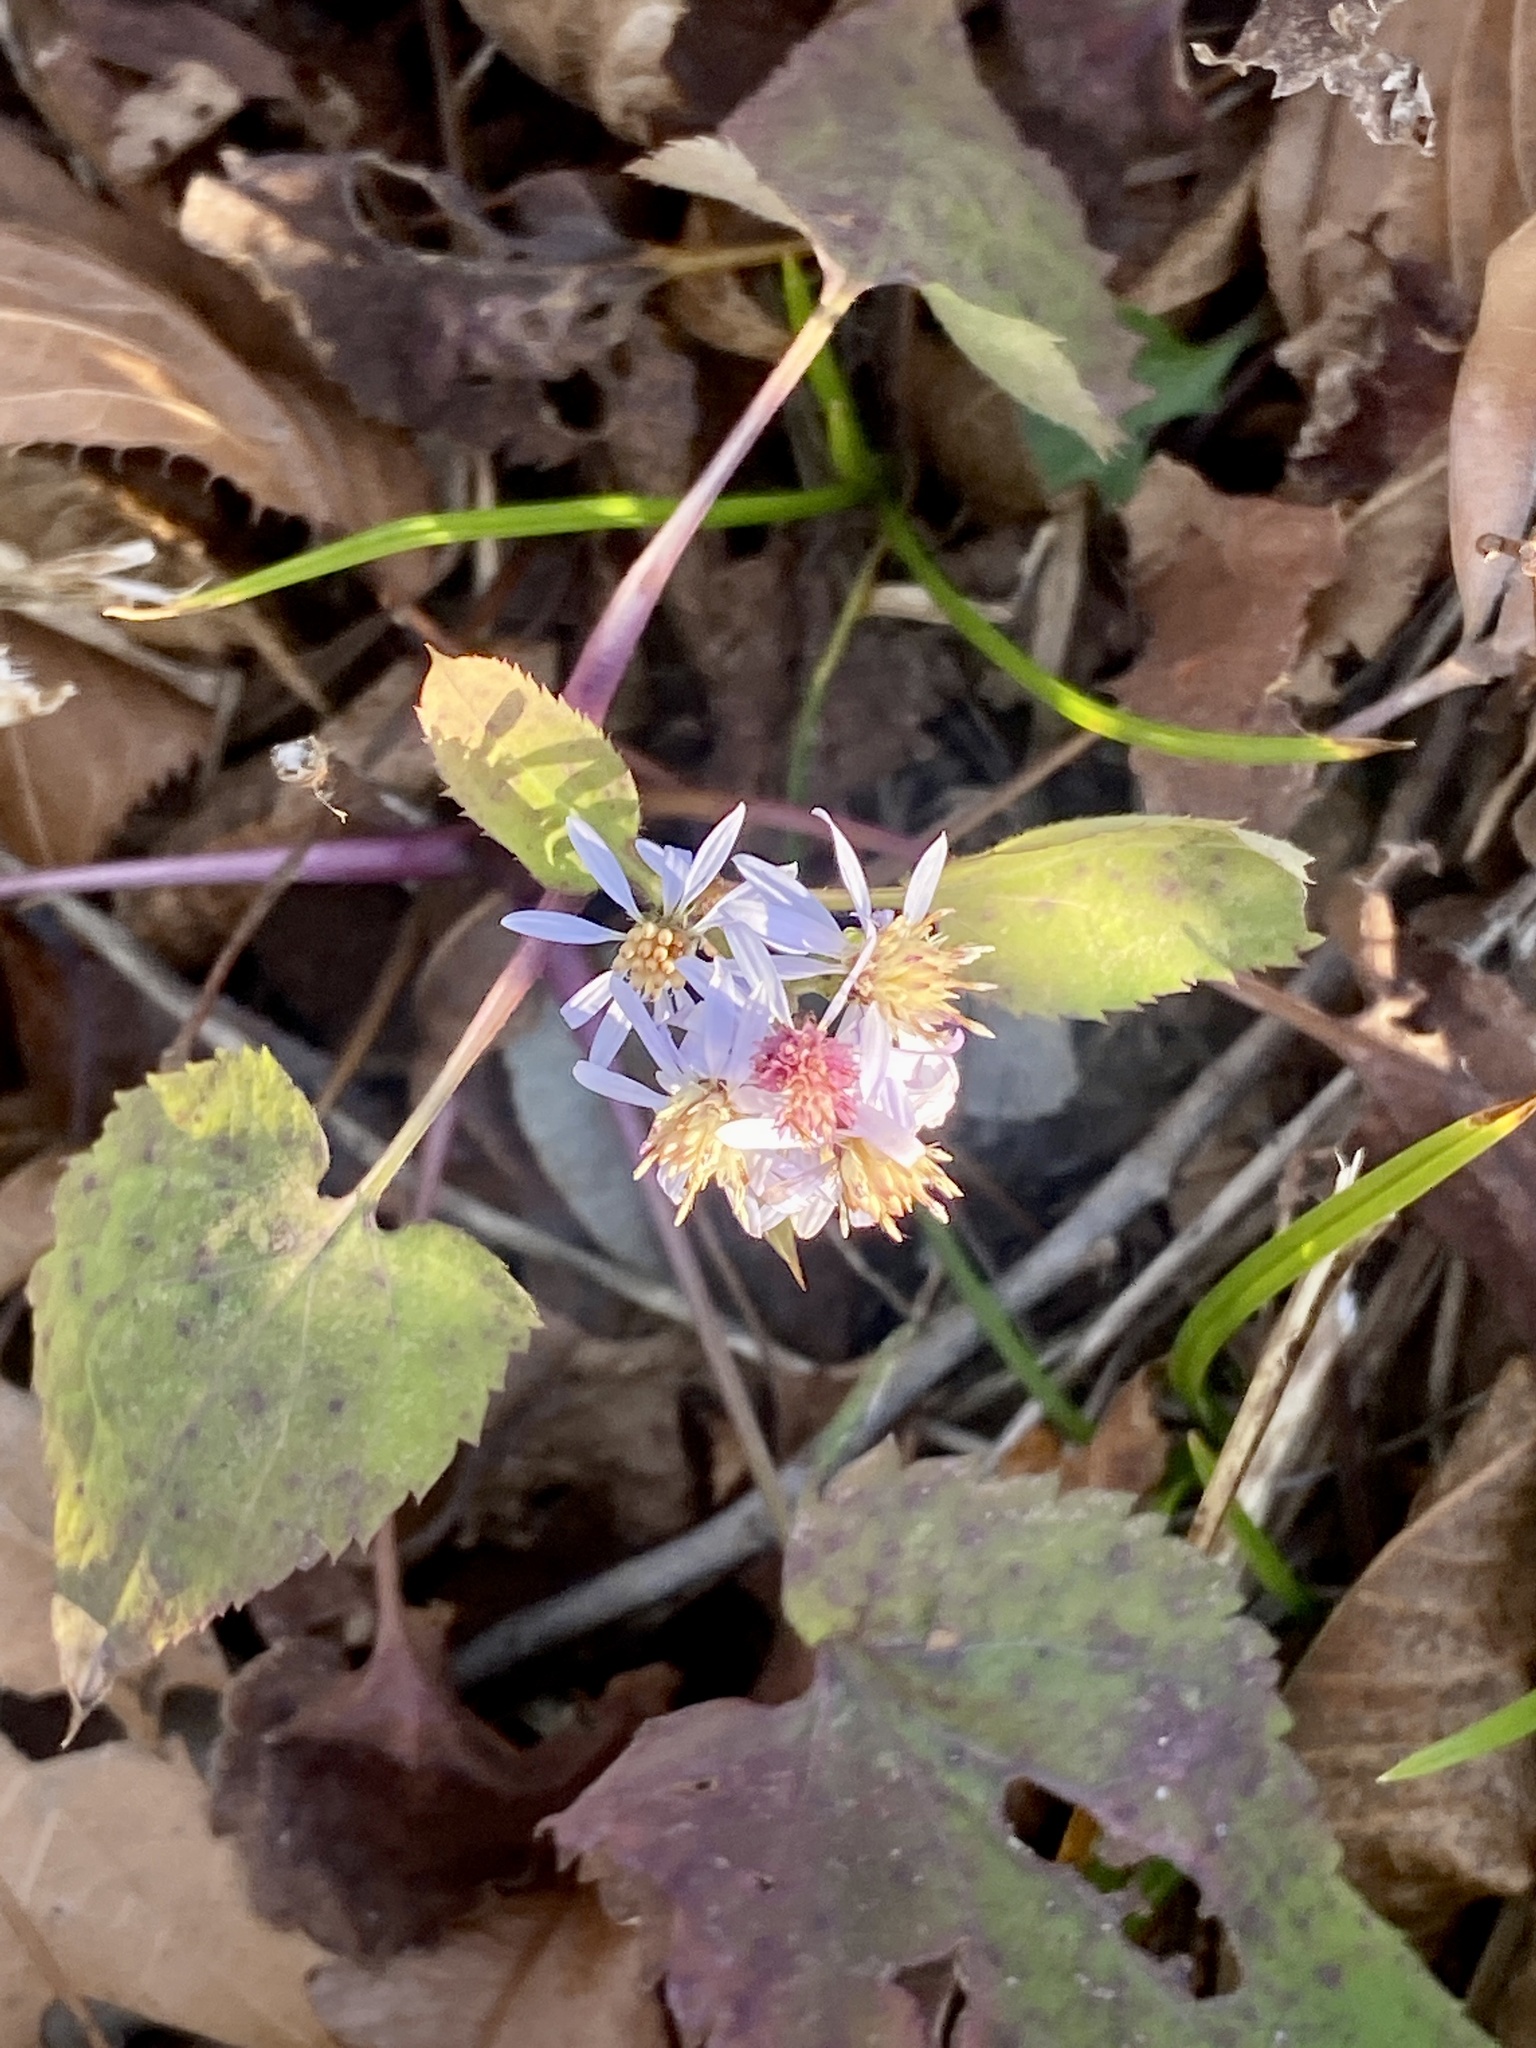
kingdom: Plantae
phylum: Tracheophyta
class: Magnoliopsida
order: Asterales
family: Asteraceae
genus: Symphyotrichum
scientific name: Symphyotrichum cordifolium
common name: Beeweed
